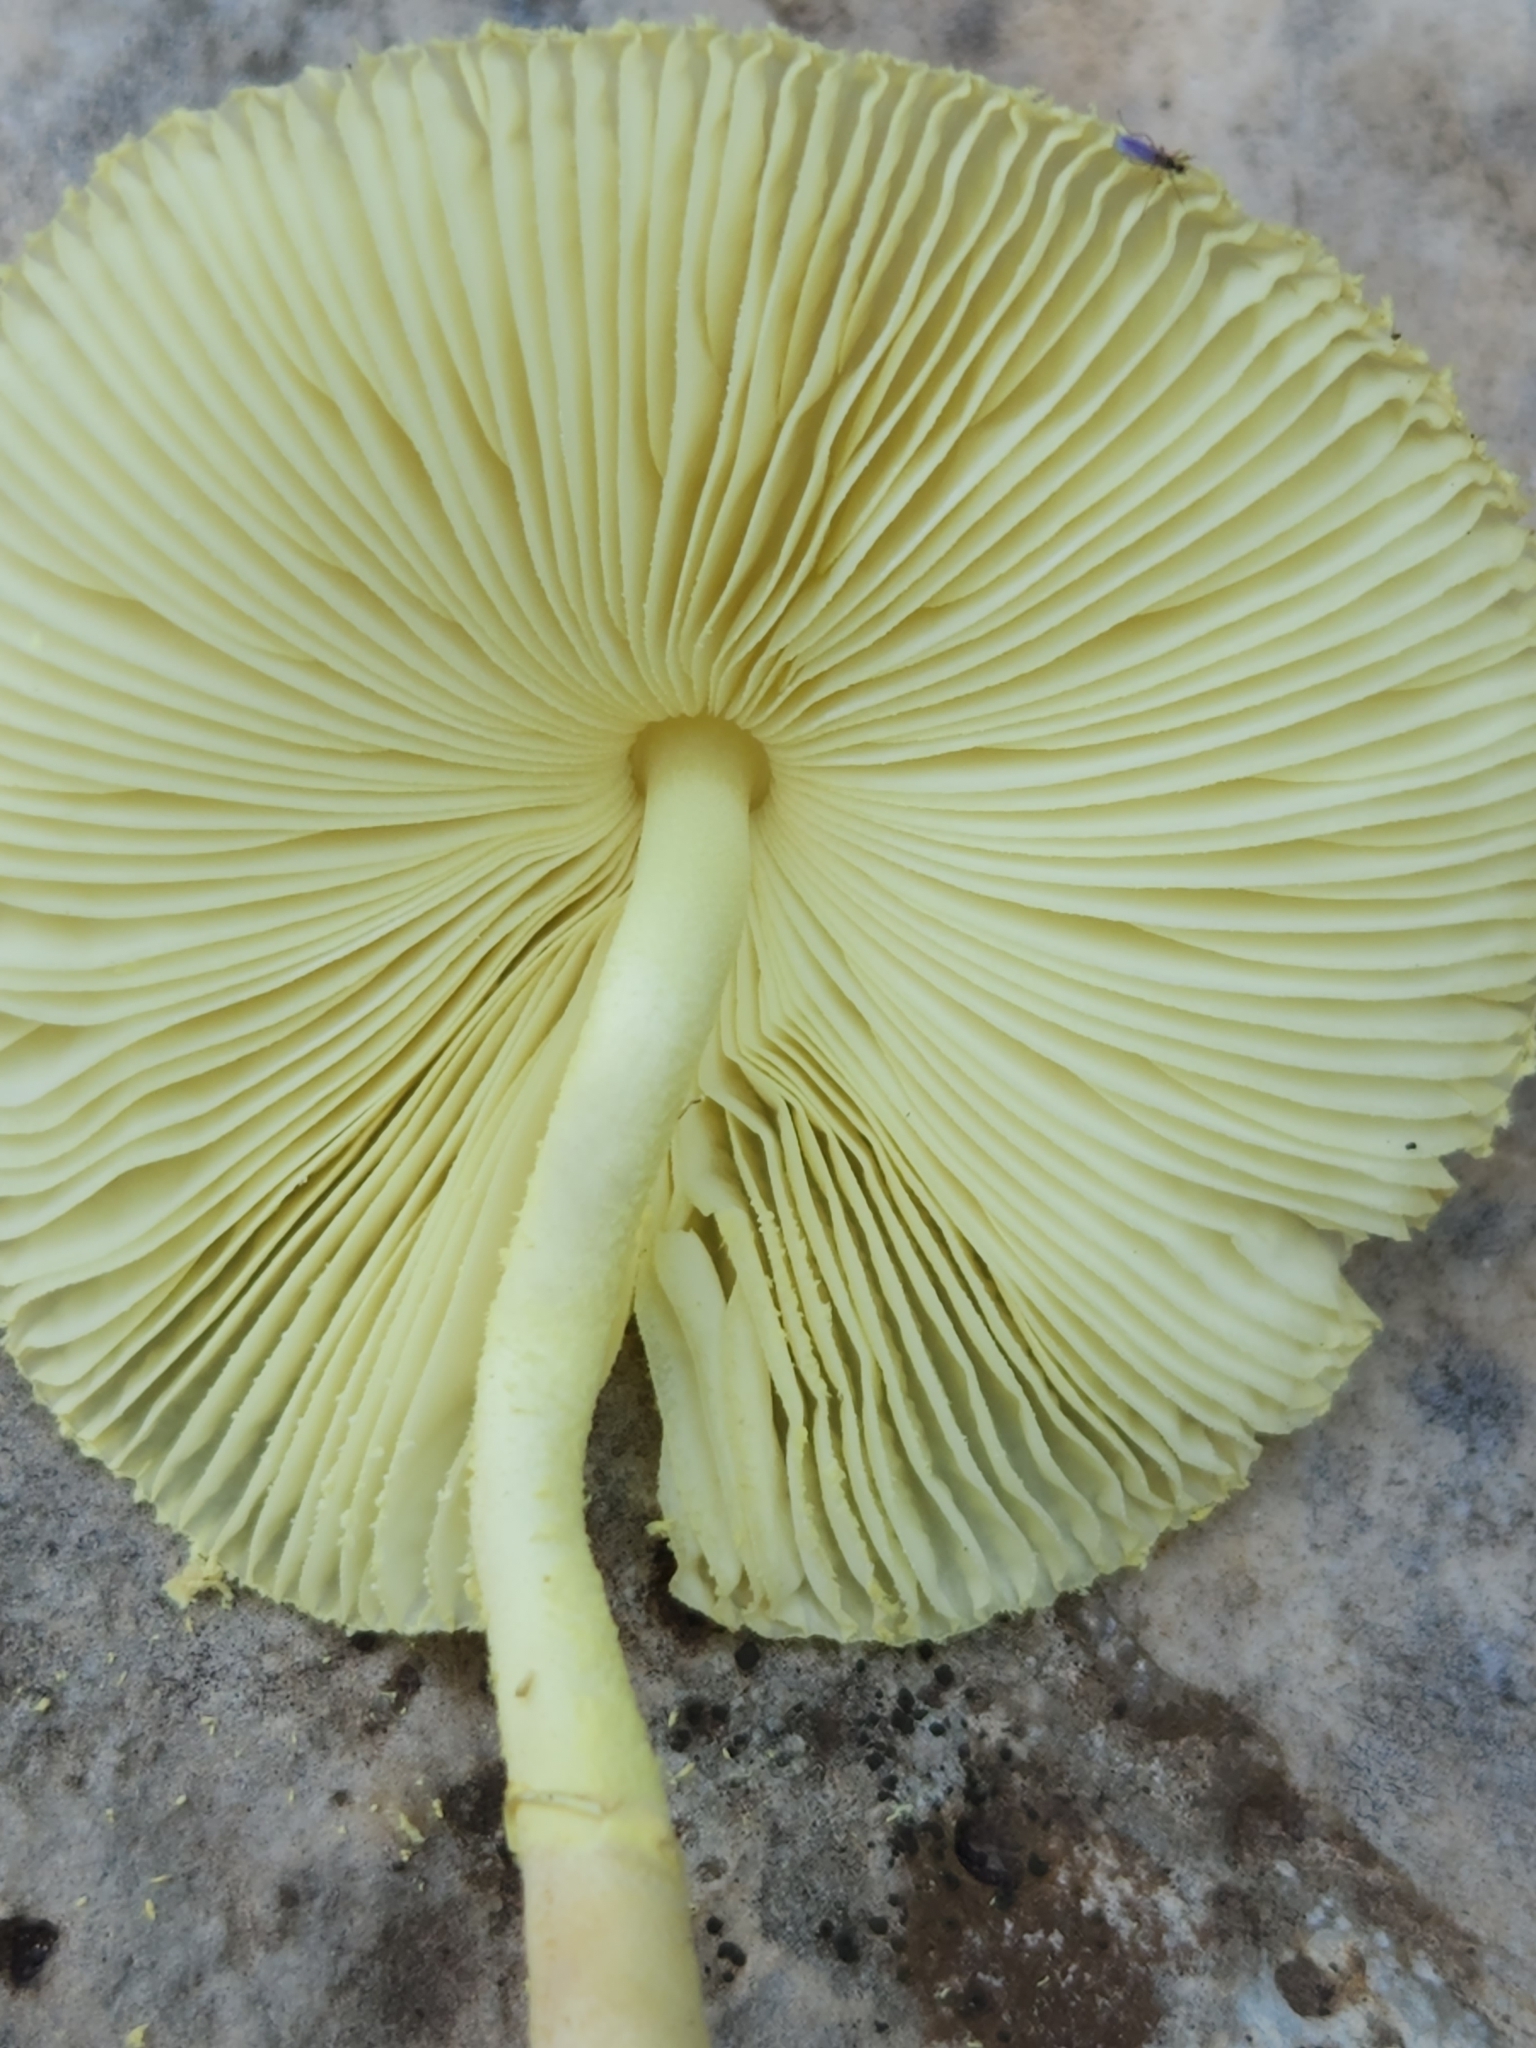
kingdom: Fungi
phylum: Basidiomycota
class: Agaricomycetes
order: Agaricales
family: Agaricaceae
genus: Leucocoprinus
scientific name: Leucocoprinus tricolor
